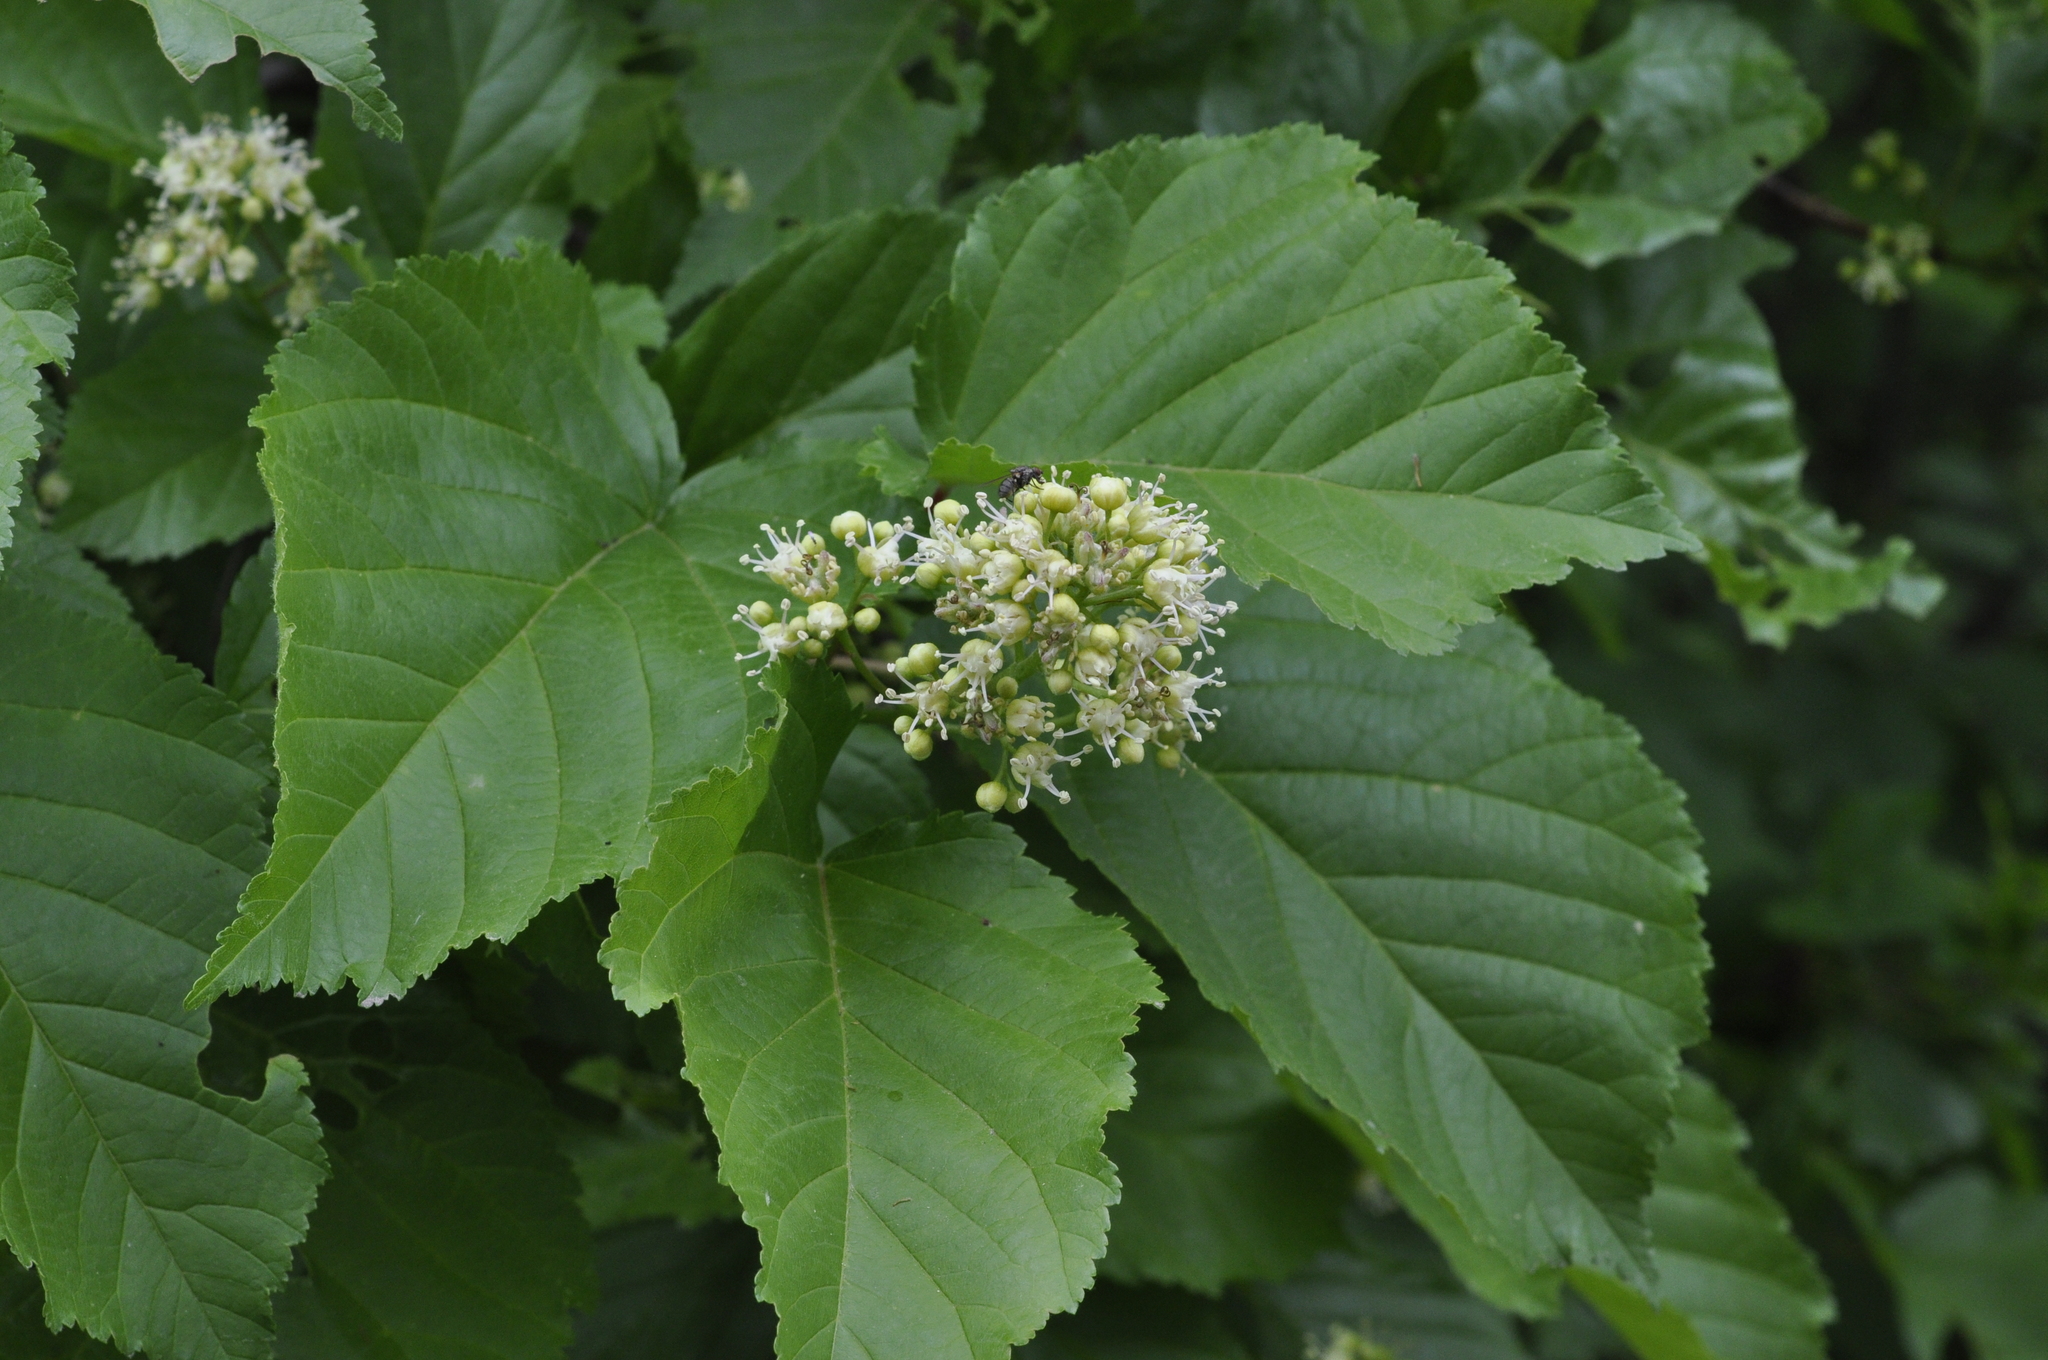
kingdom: Plantae
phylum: Tracheophyta
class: Magnoliopsida
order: Sapindales
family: Sapindaceae
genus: Acer
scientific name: Acer tataricum
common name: Tartar maple
